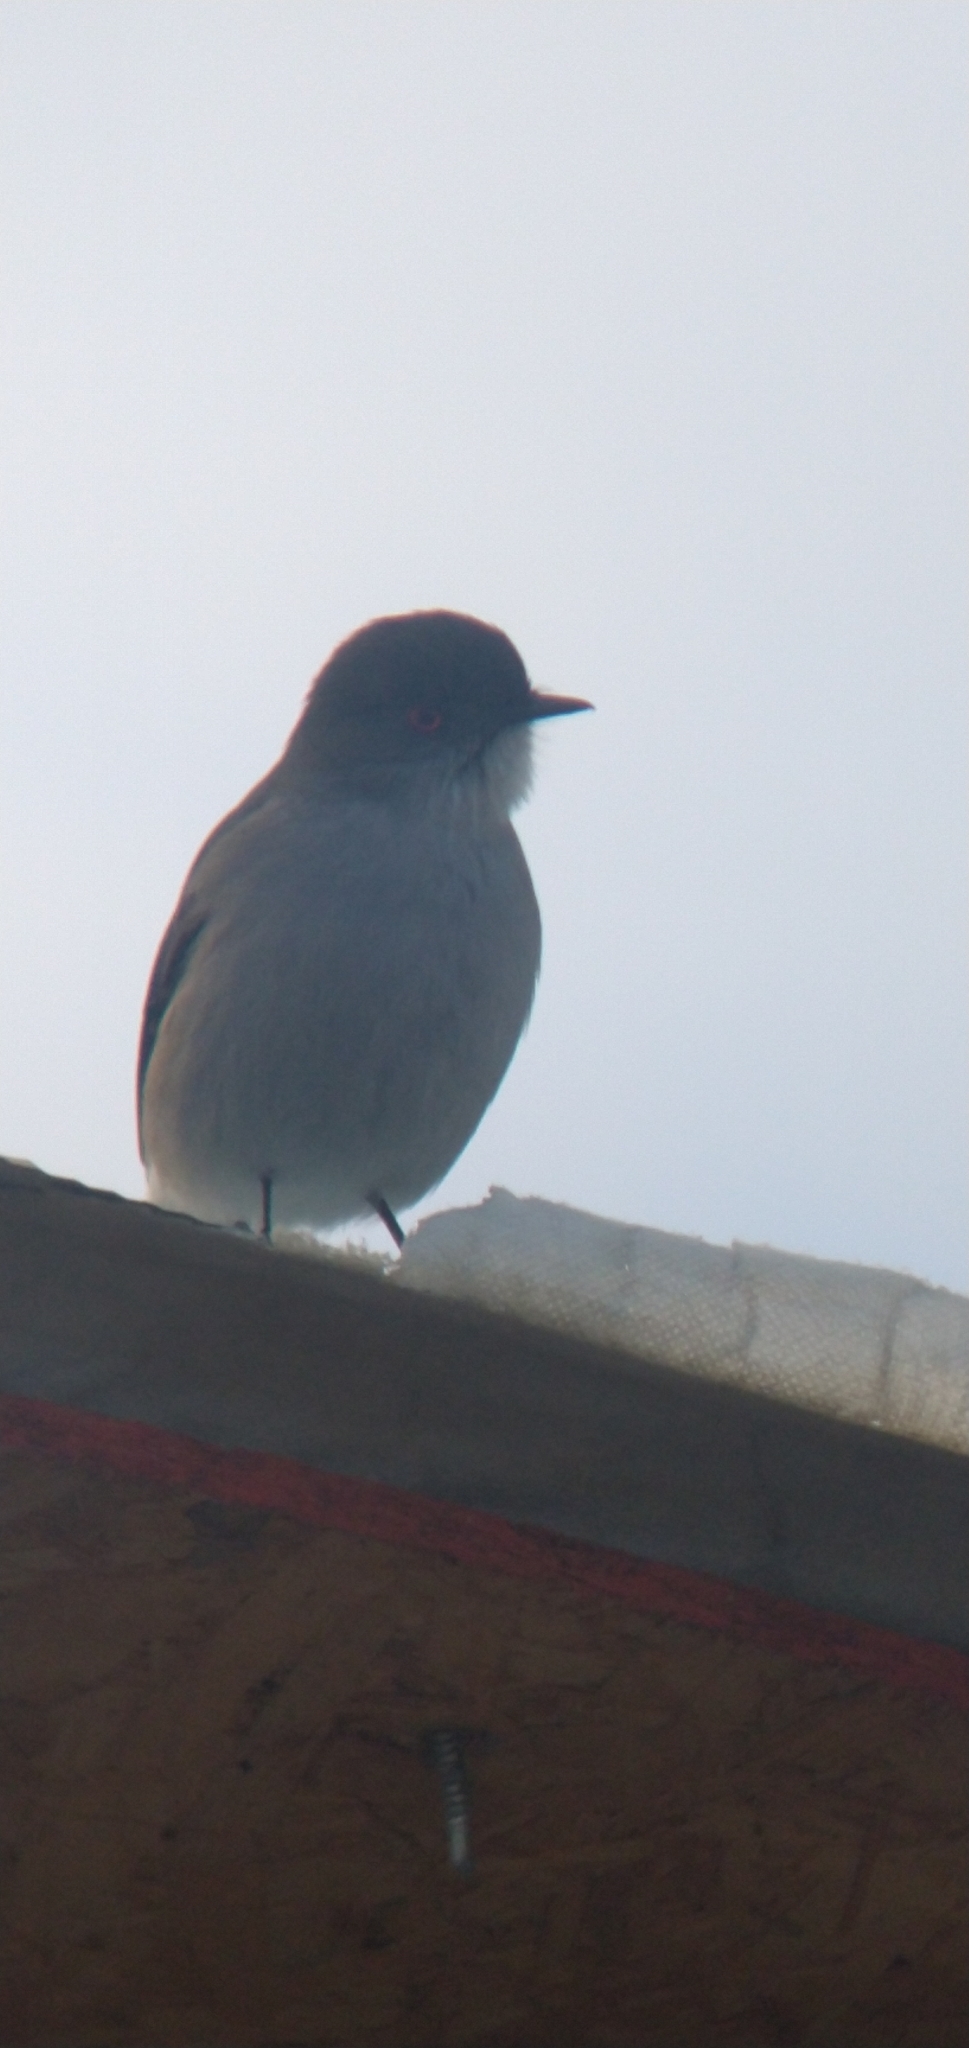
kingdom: Animalia
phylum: Chordata
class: Aves
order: Passeriformes
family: Tyrannidae
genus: Xolmis
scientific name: Xolmis pyrope
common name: Fire-eyed diucon
